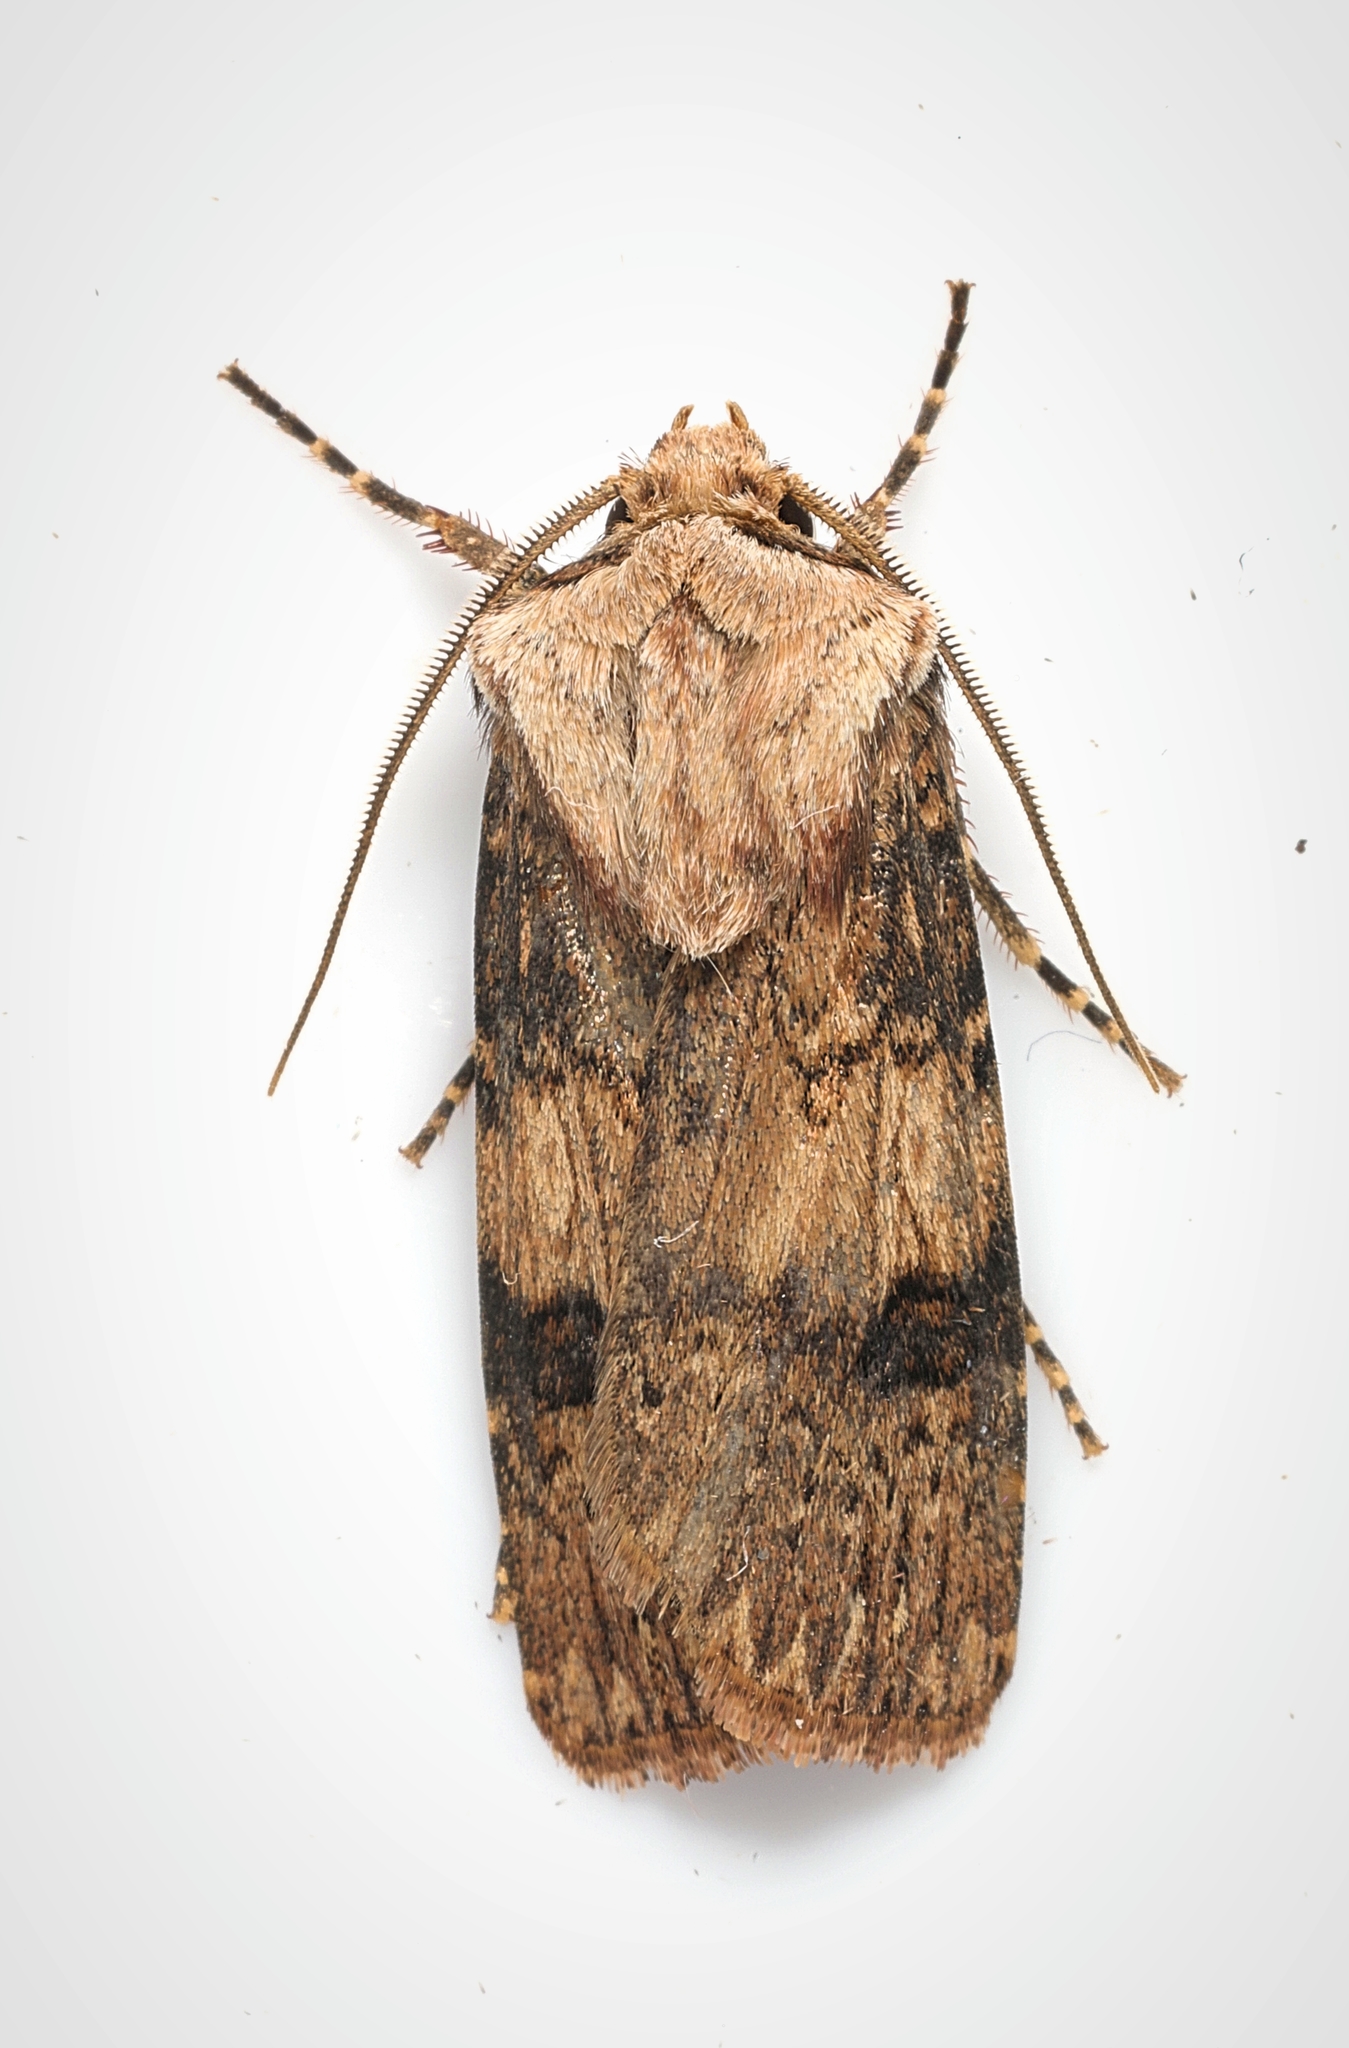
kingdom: Animalia
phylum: Arthropoda
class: Insecta
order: Lepidoptera
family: Noctuidae
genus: Agrotis
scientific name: Agrotis puta
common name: Shuttle-shaped dart
